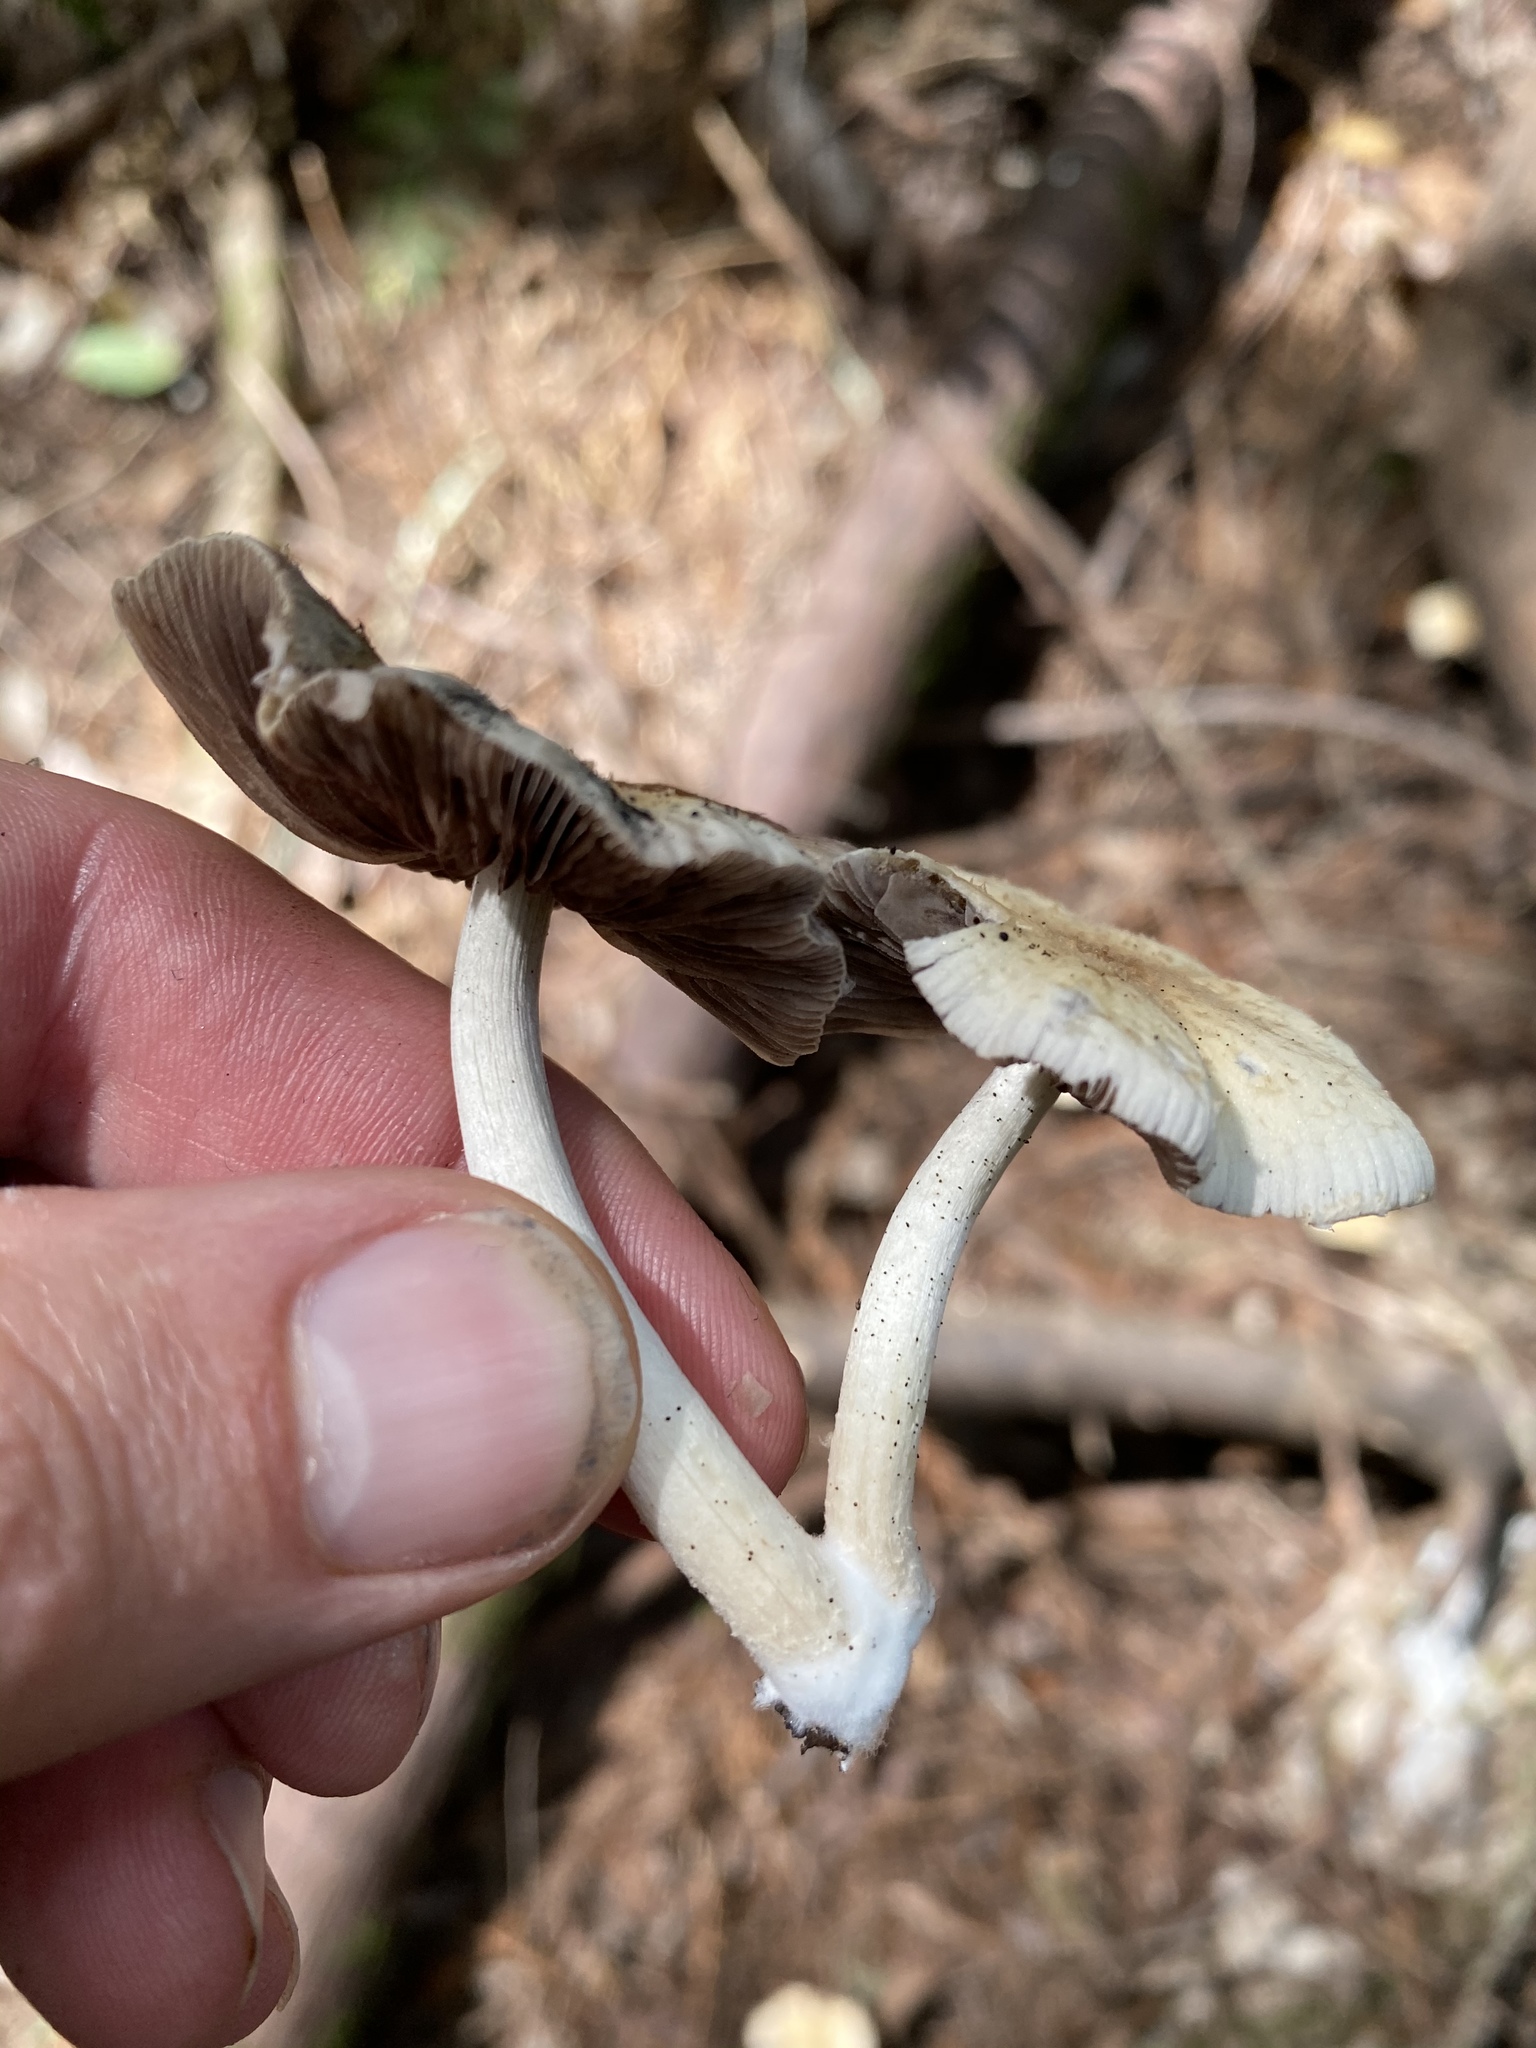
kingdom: Fungi
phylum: Basidiomycota
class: Agaricomycetes
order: Agaricales
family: Psathyrellaceae
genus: Candolleomyces
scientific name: Candolleomyces candolleanus
